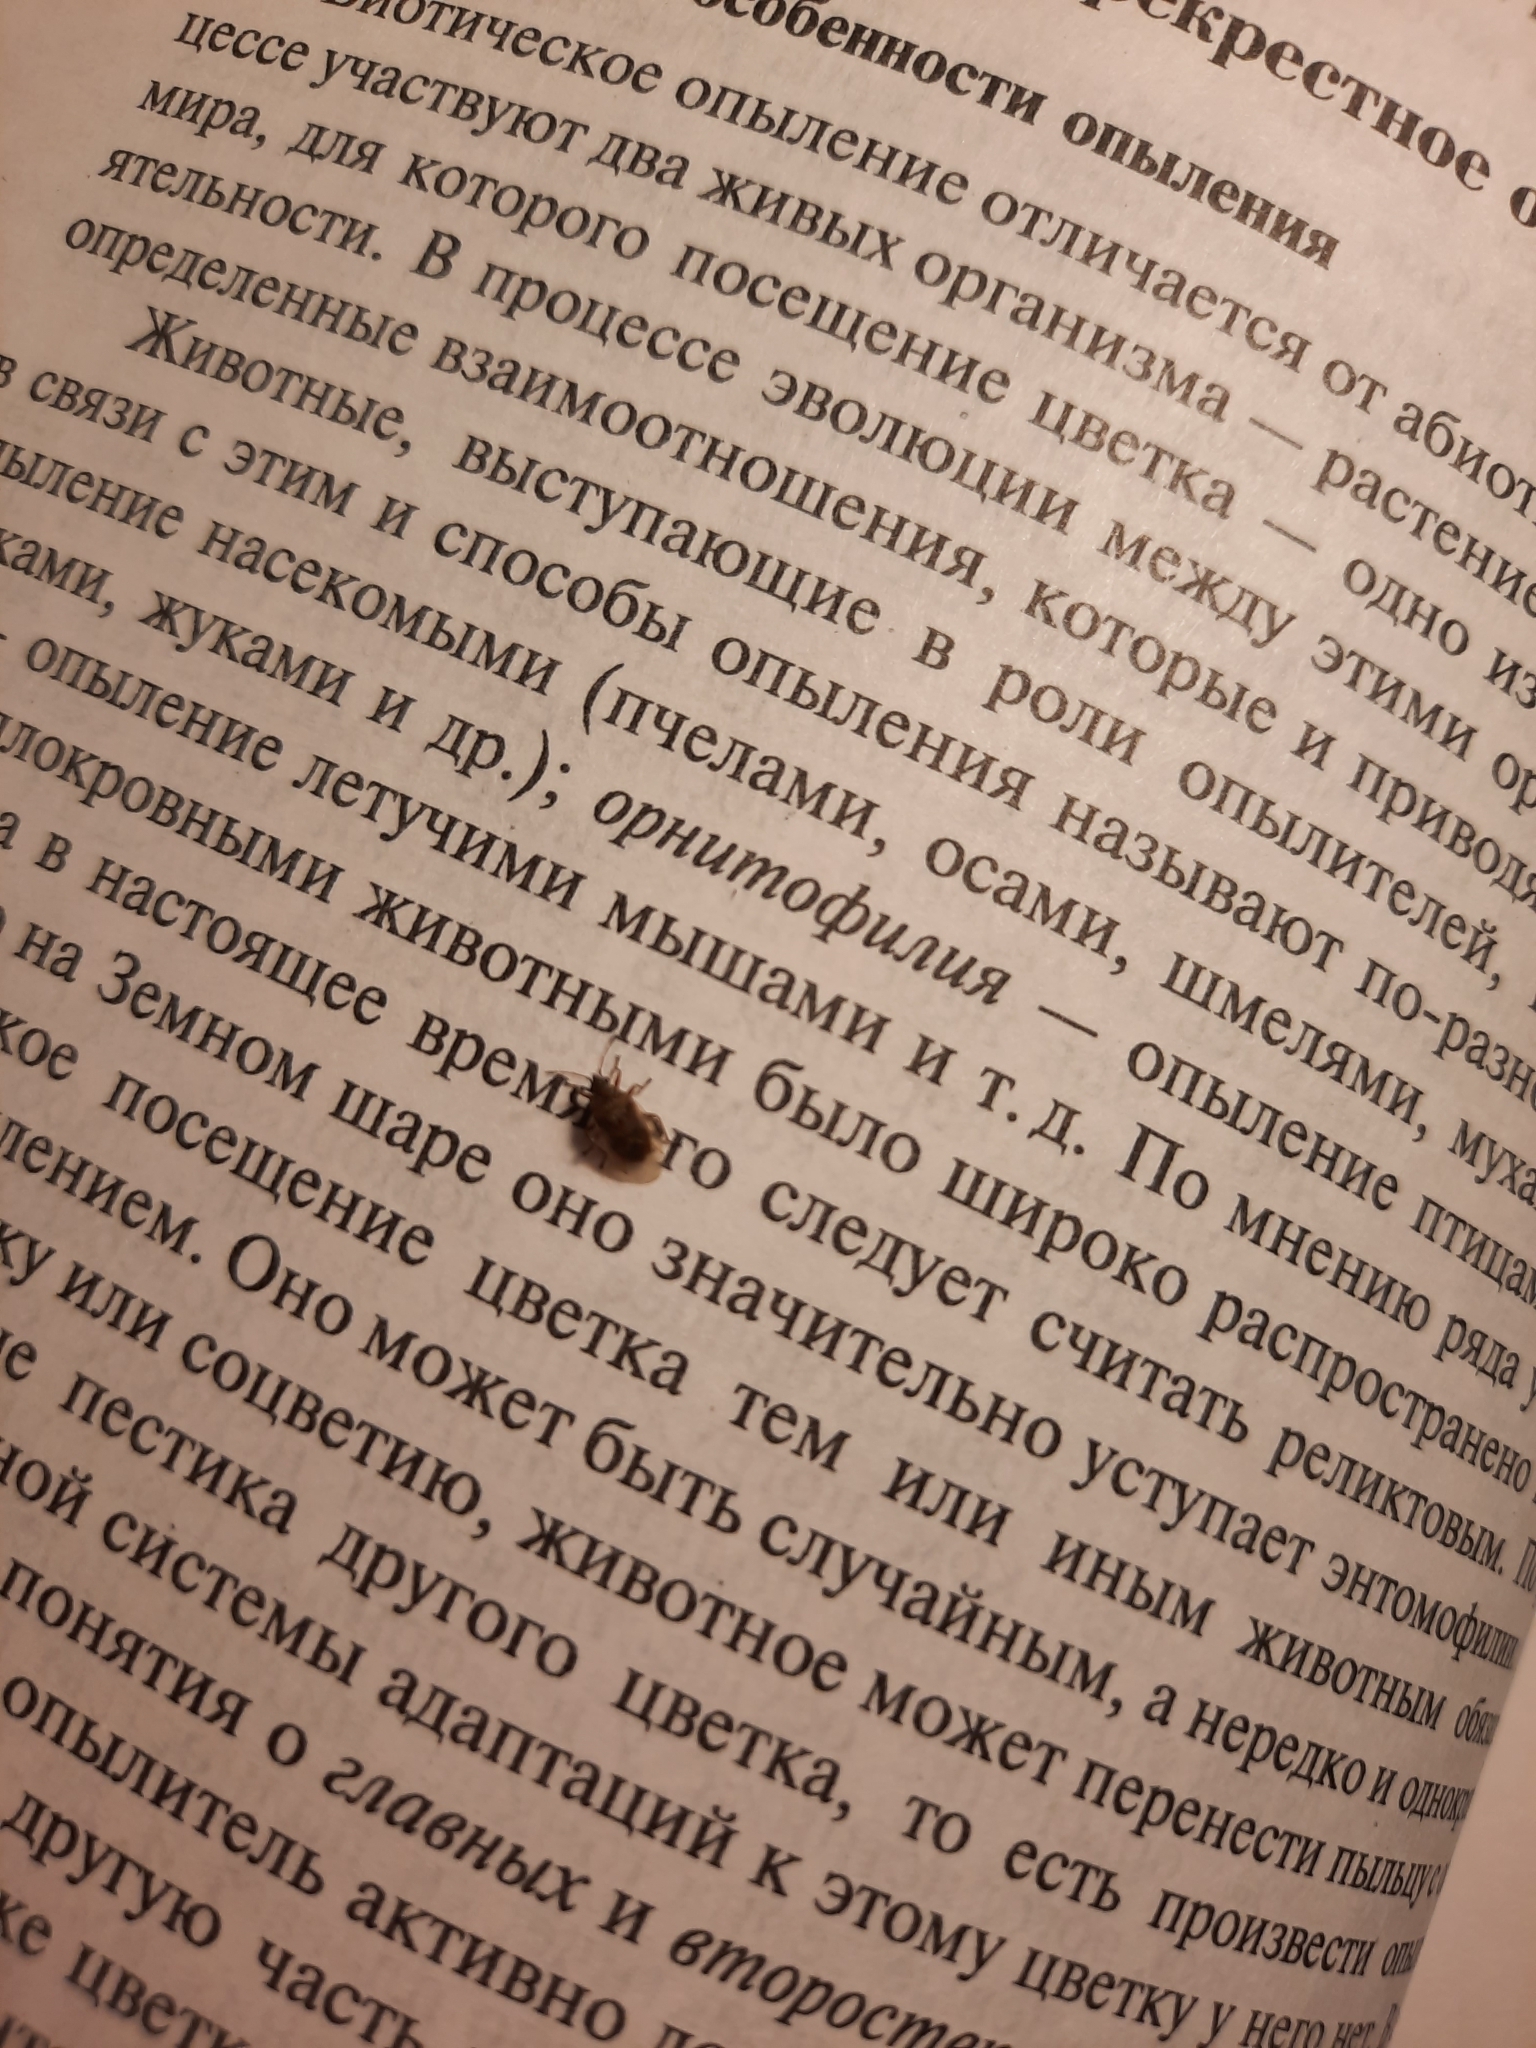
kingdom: Animalia
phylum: Arthropoda
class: Insecta
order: Hemiptera
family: Lygaeidae
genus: Kleidocerys
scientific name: Kleidocerys resedae
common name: Birch catkin bug
